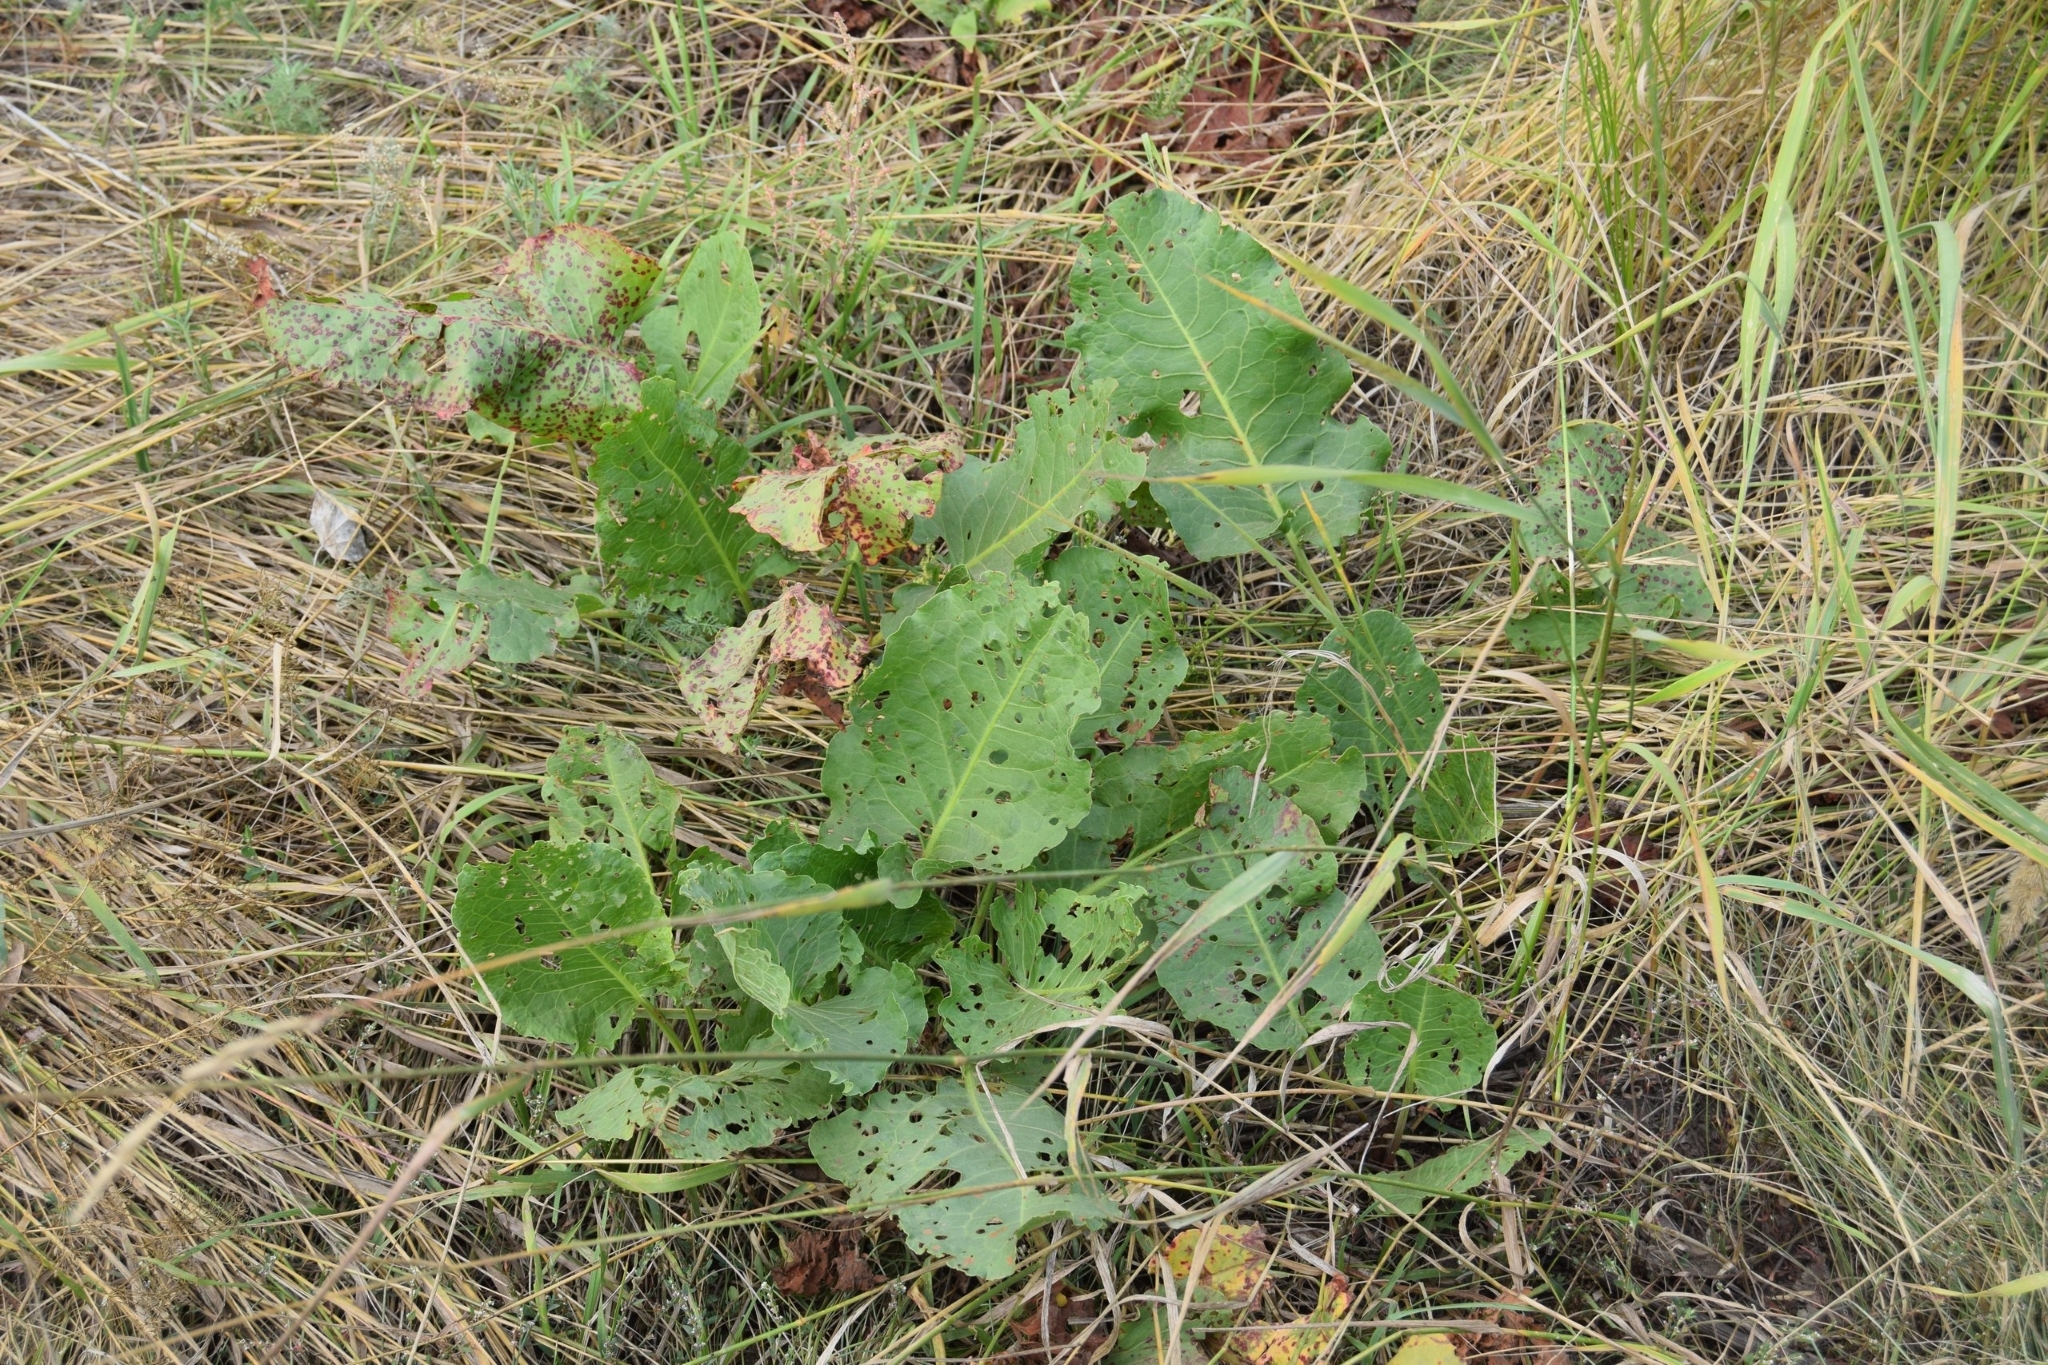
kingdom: Plantae
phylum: Tracheophyta
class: Magnoliopsida
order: Caryophyllales
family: Polygonaceae
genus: Rumex
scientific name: Rumex confertus
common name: Russian dock
